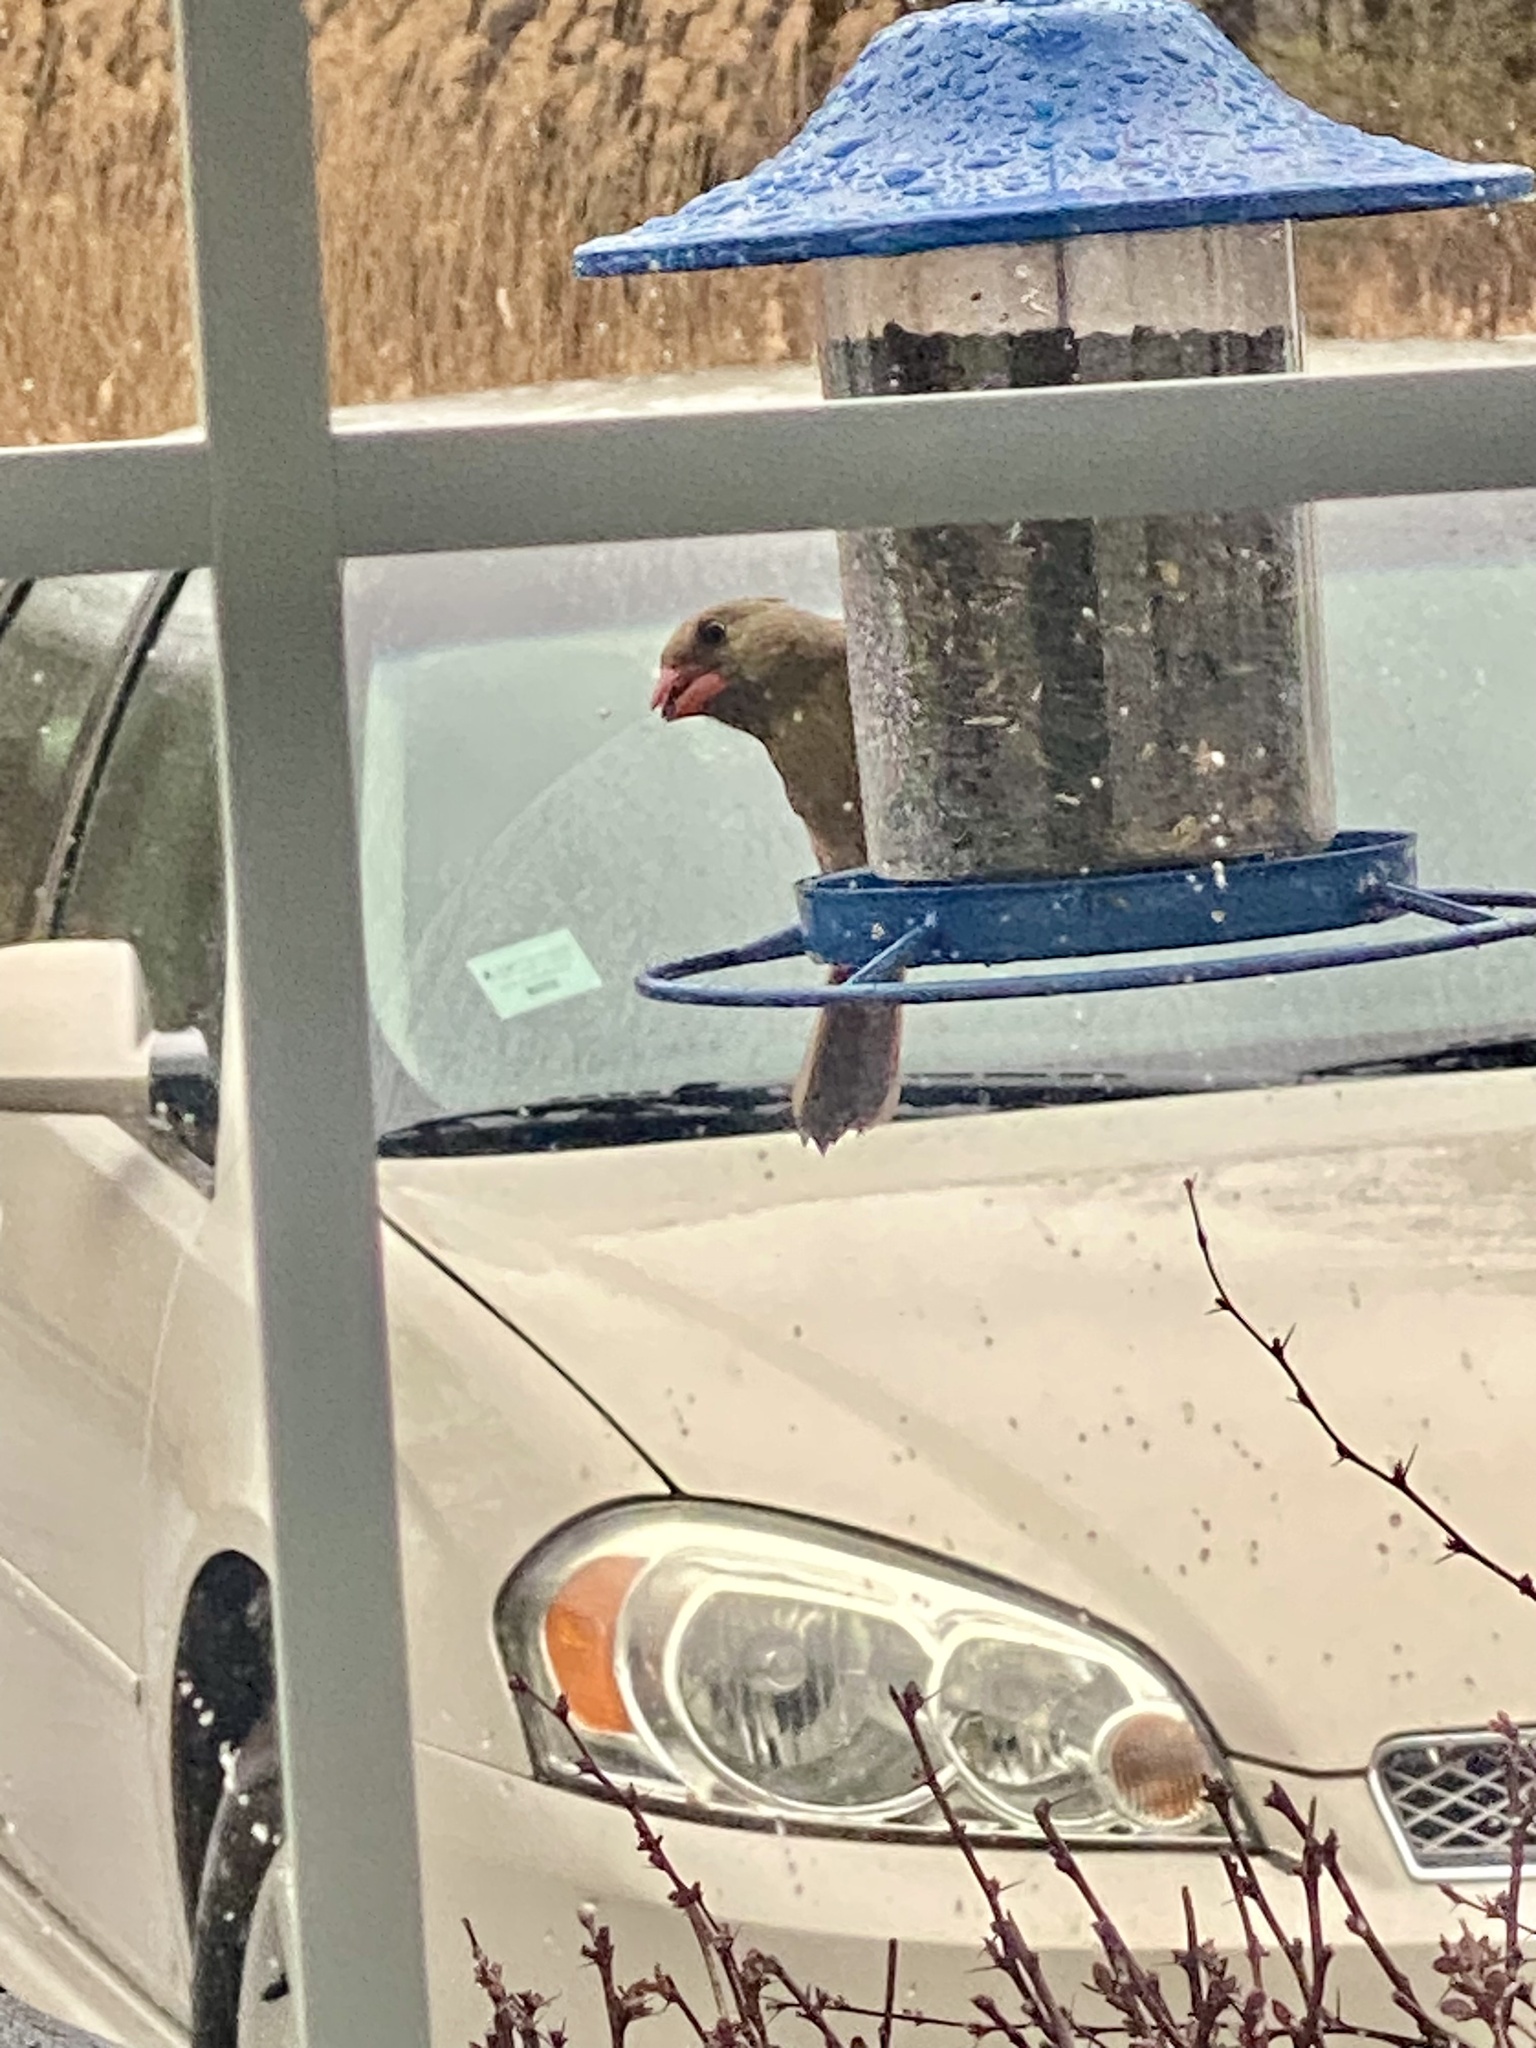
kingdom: Animalia
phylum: Chordata
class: Aves
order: Passeriformes
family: Cardinalidae
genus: Cardinalis
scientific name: Cardinalis cardinalis
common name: Northern cardinal
